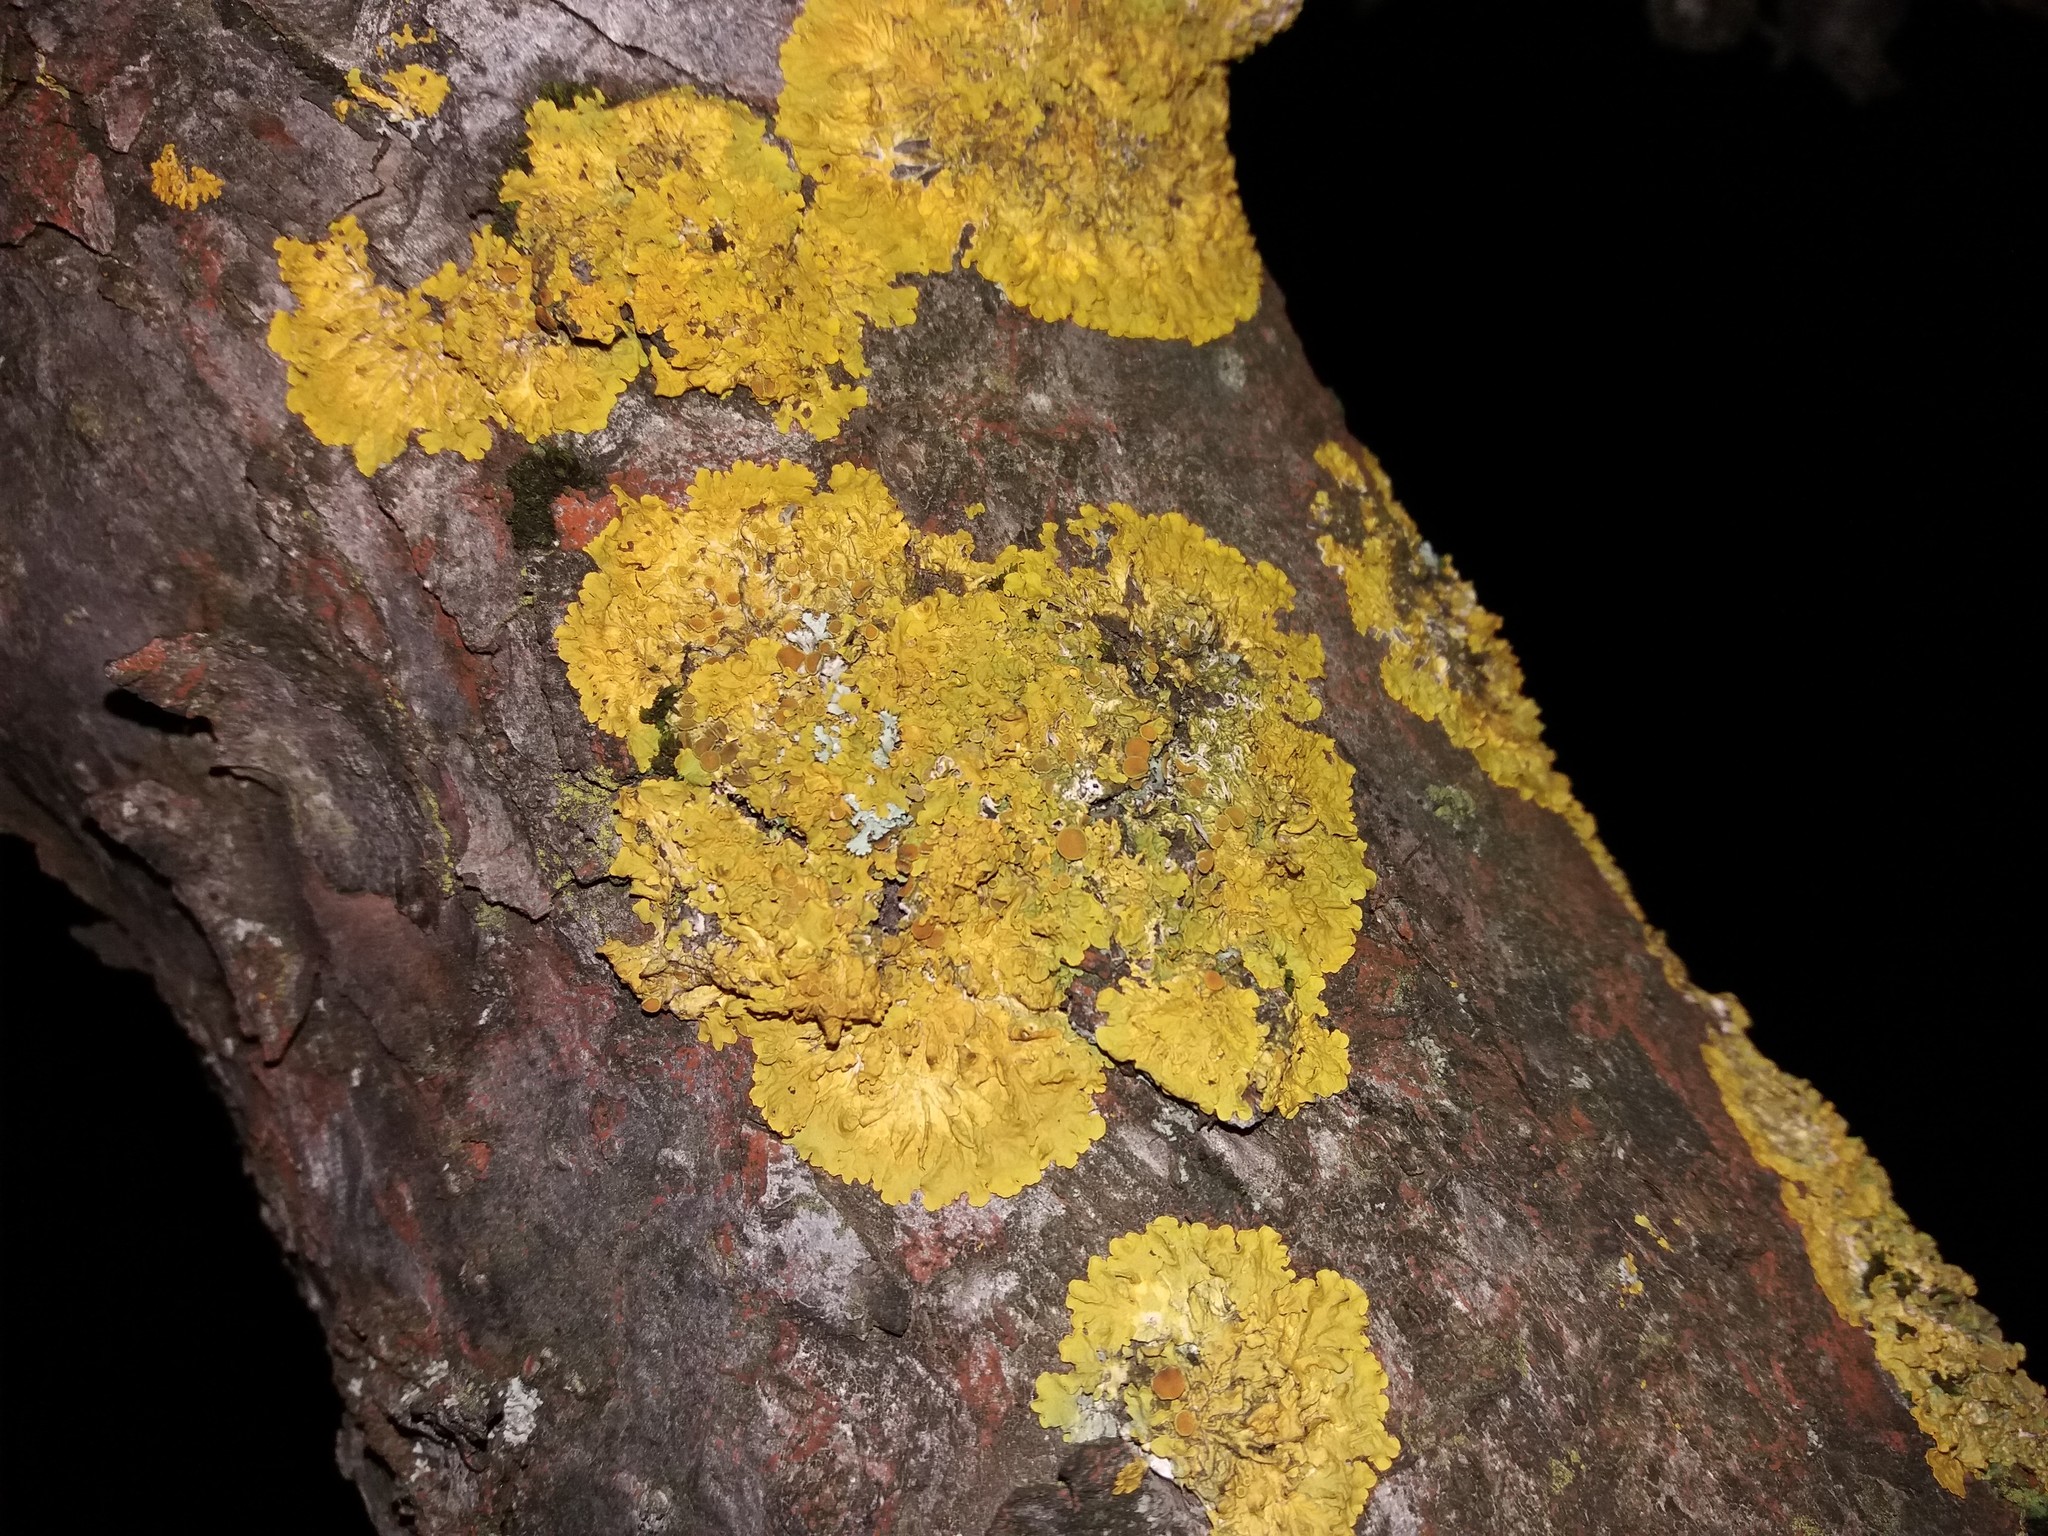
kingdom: Fungi
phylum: Ascomycota
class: Lecanoromycetes
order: Teloschistales
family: Teloschistaceae
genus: Xanthoria
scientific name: Xanthoria parietina
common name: Common orange lichen
